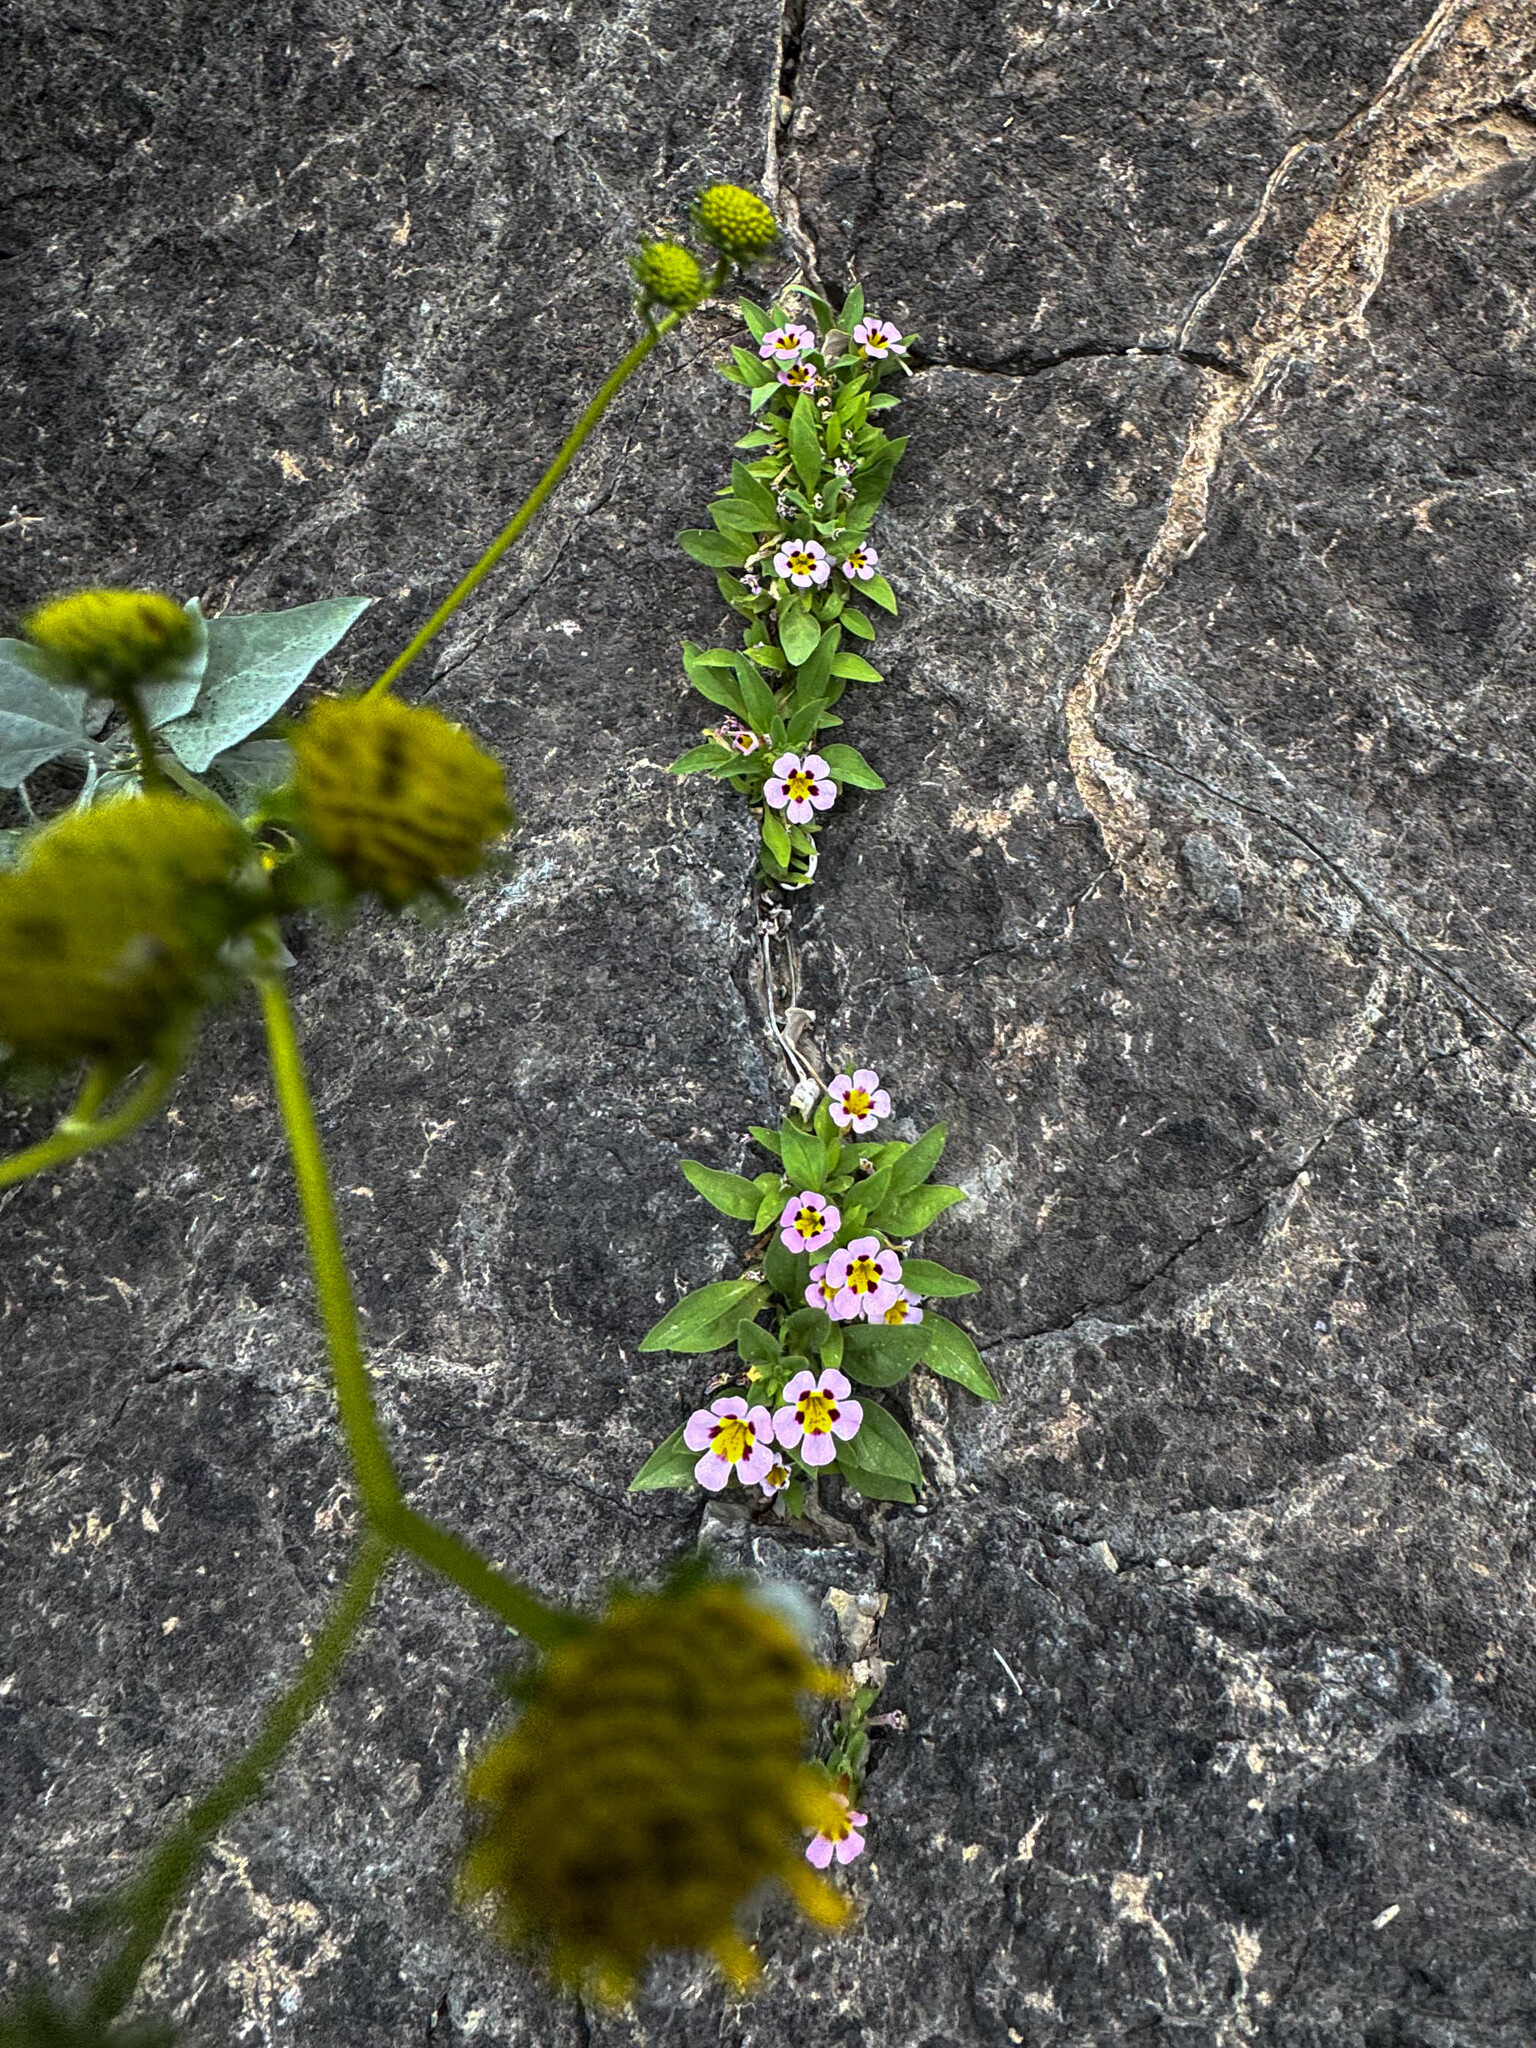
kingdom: Plantae
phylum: Tracheophyta
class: Magnoliopsida
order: Lamiales
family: Phrymaceae
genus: Diplacus
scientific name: Diplacus rupicola
